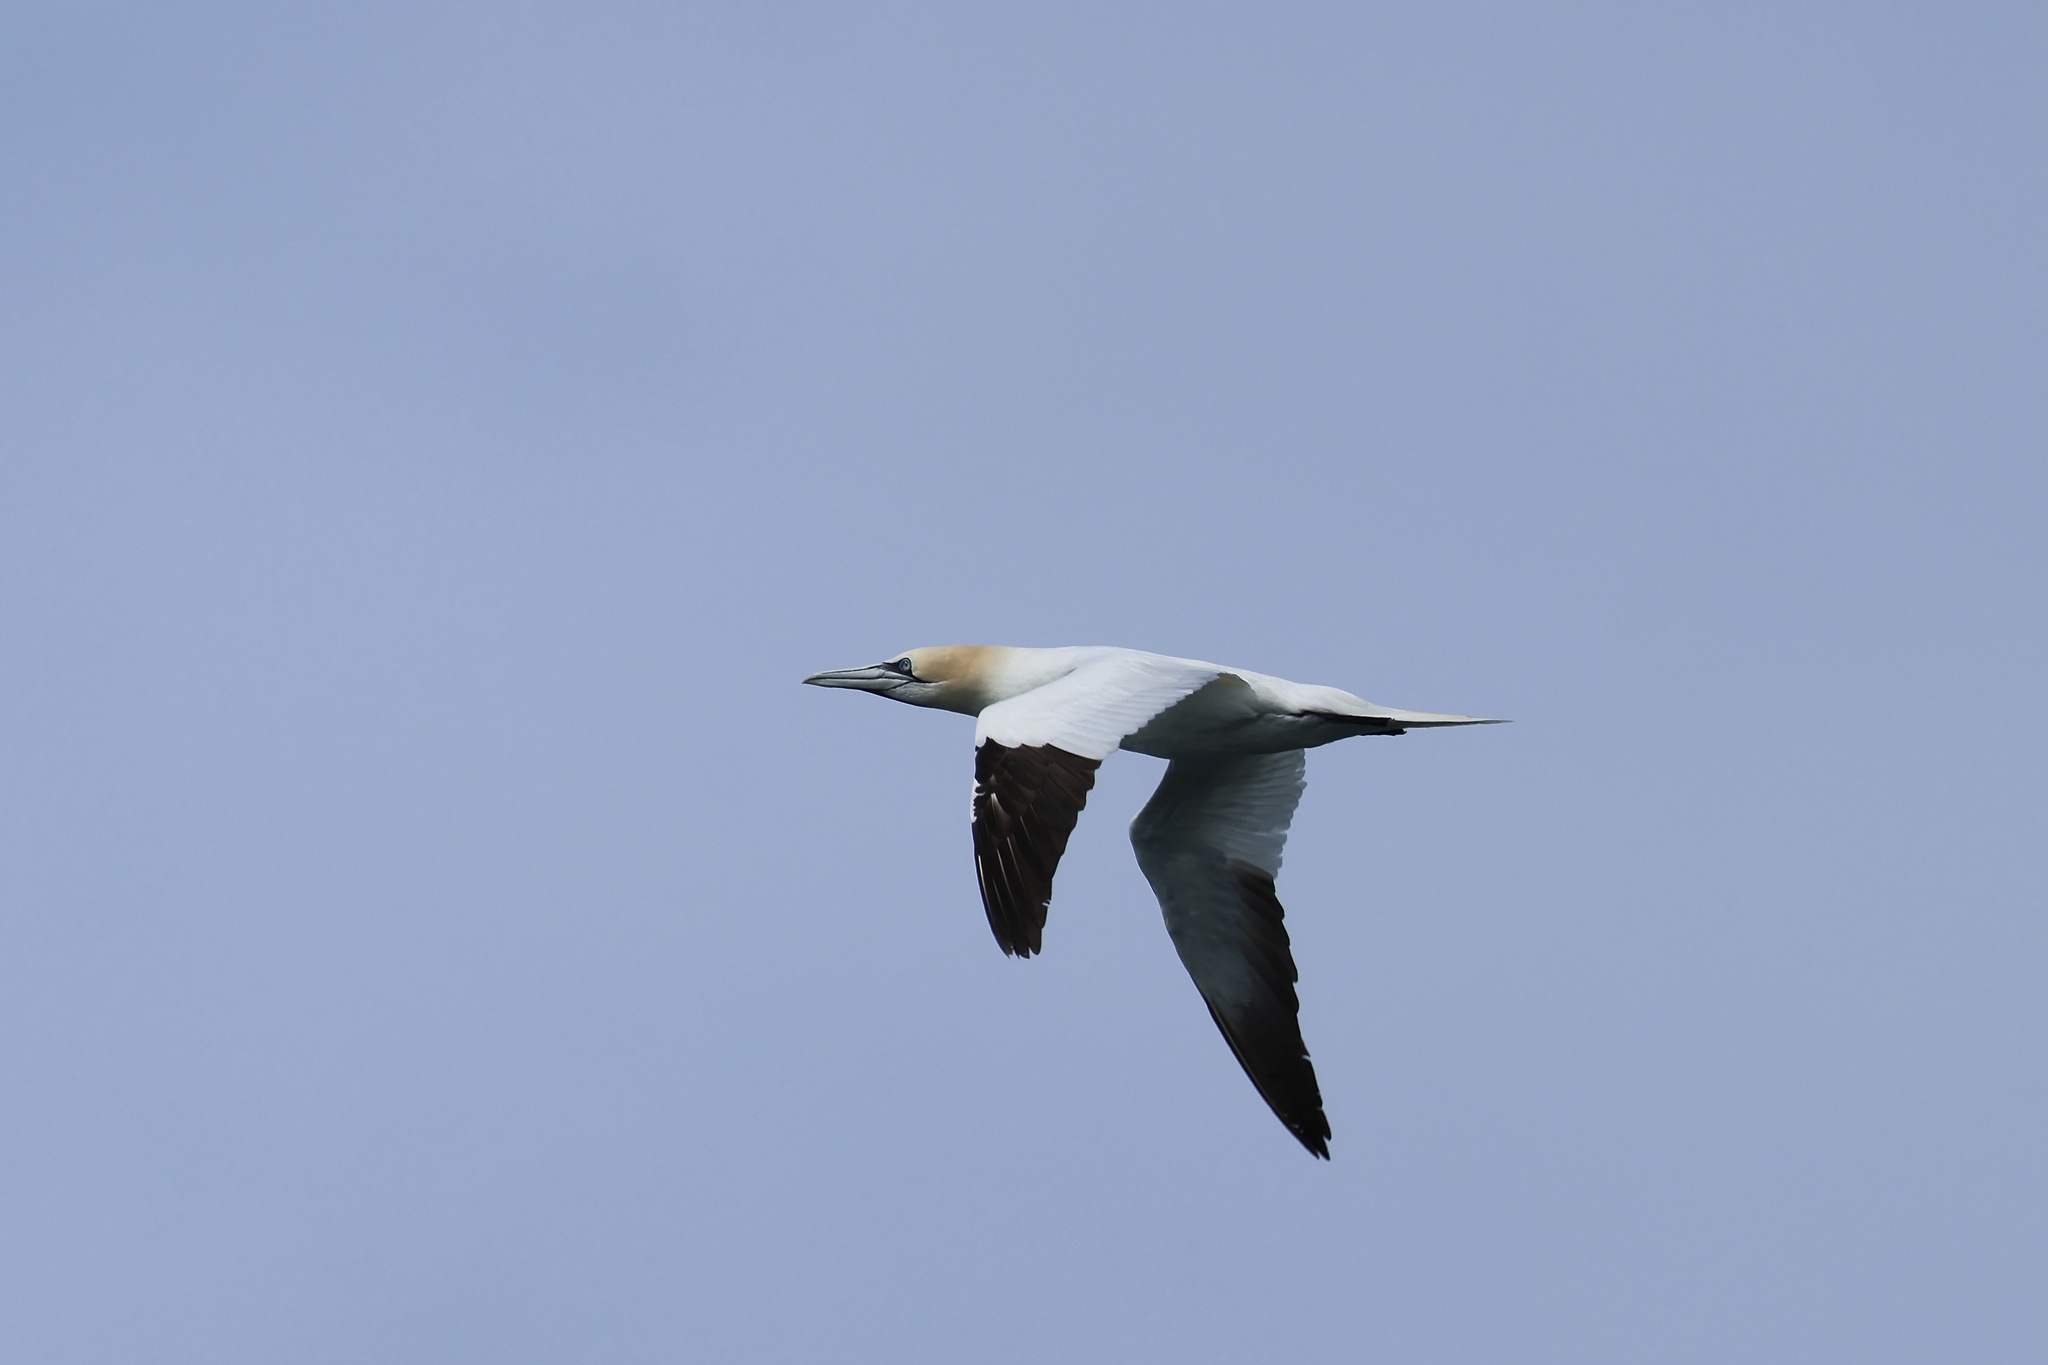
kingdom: Animalia
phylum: Chordata
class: Aves
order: Suliformes
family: Sulidae
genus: Morus
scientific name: Morus bassanus
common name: Northern gannet
